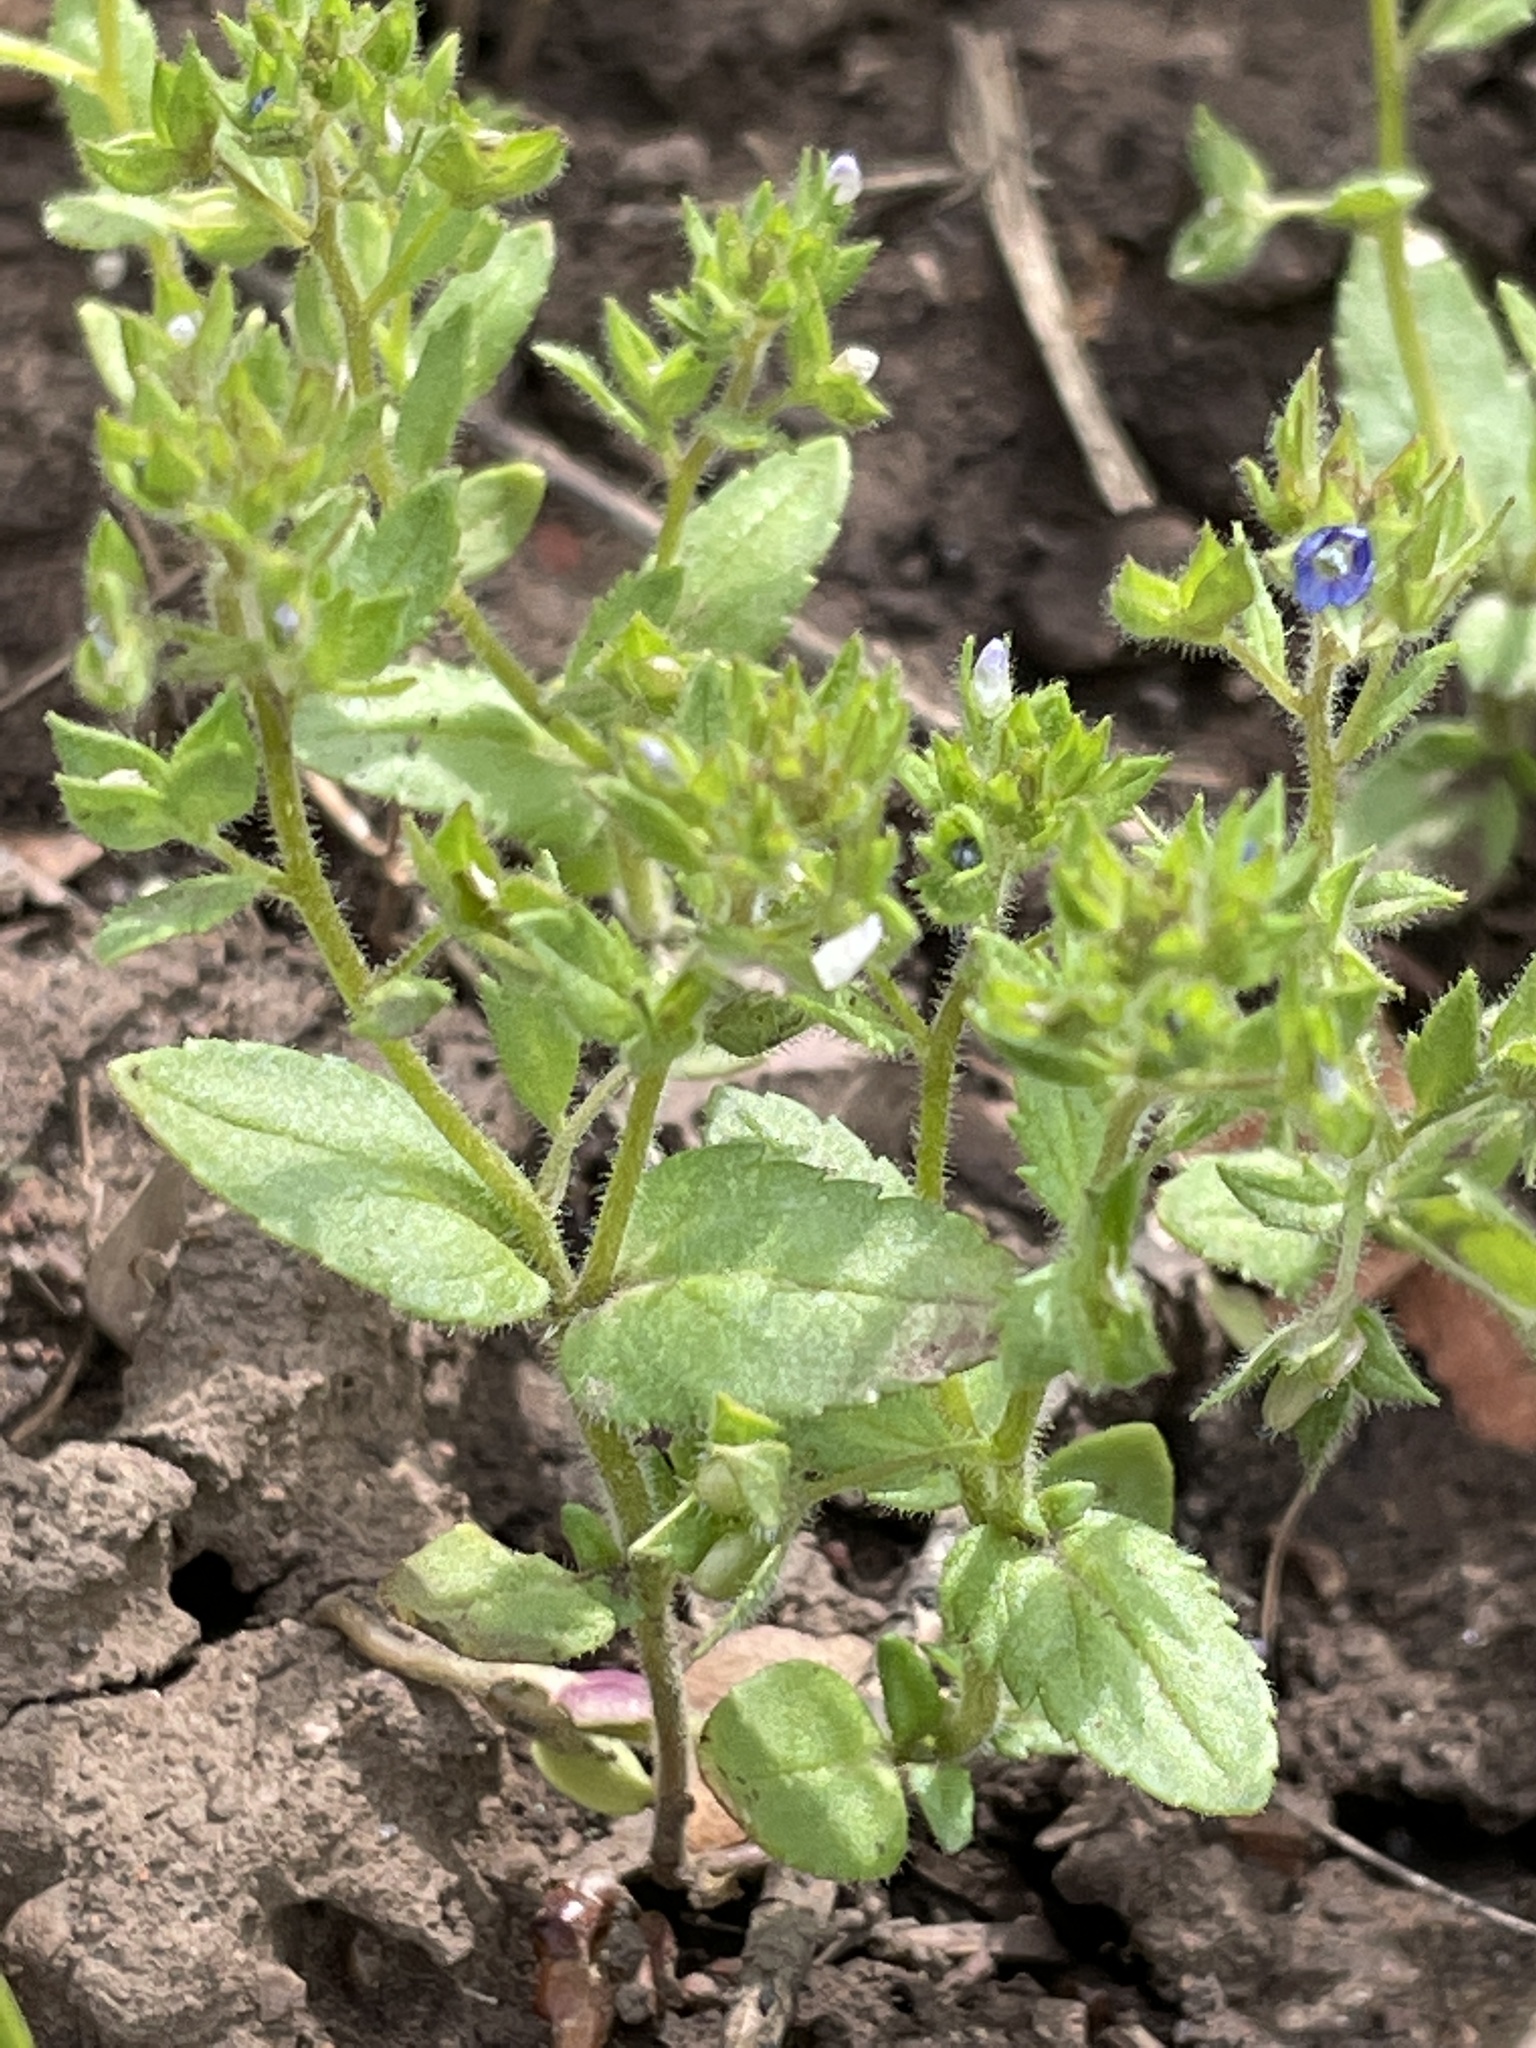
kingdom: Plantae
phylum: Tracheophyta
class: Magnoliopsida
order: Lamiales
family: Plantaginaceae
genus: Veronica
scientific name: Veronica biloba
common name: Twolobe speedwell
